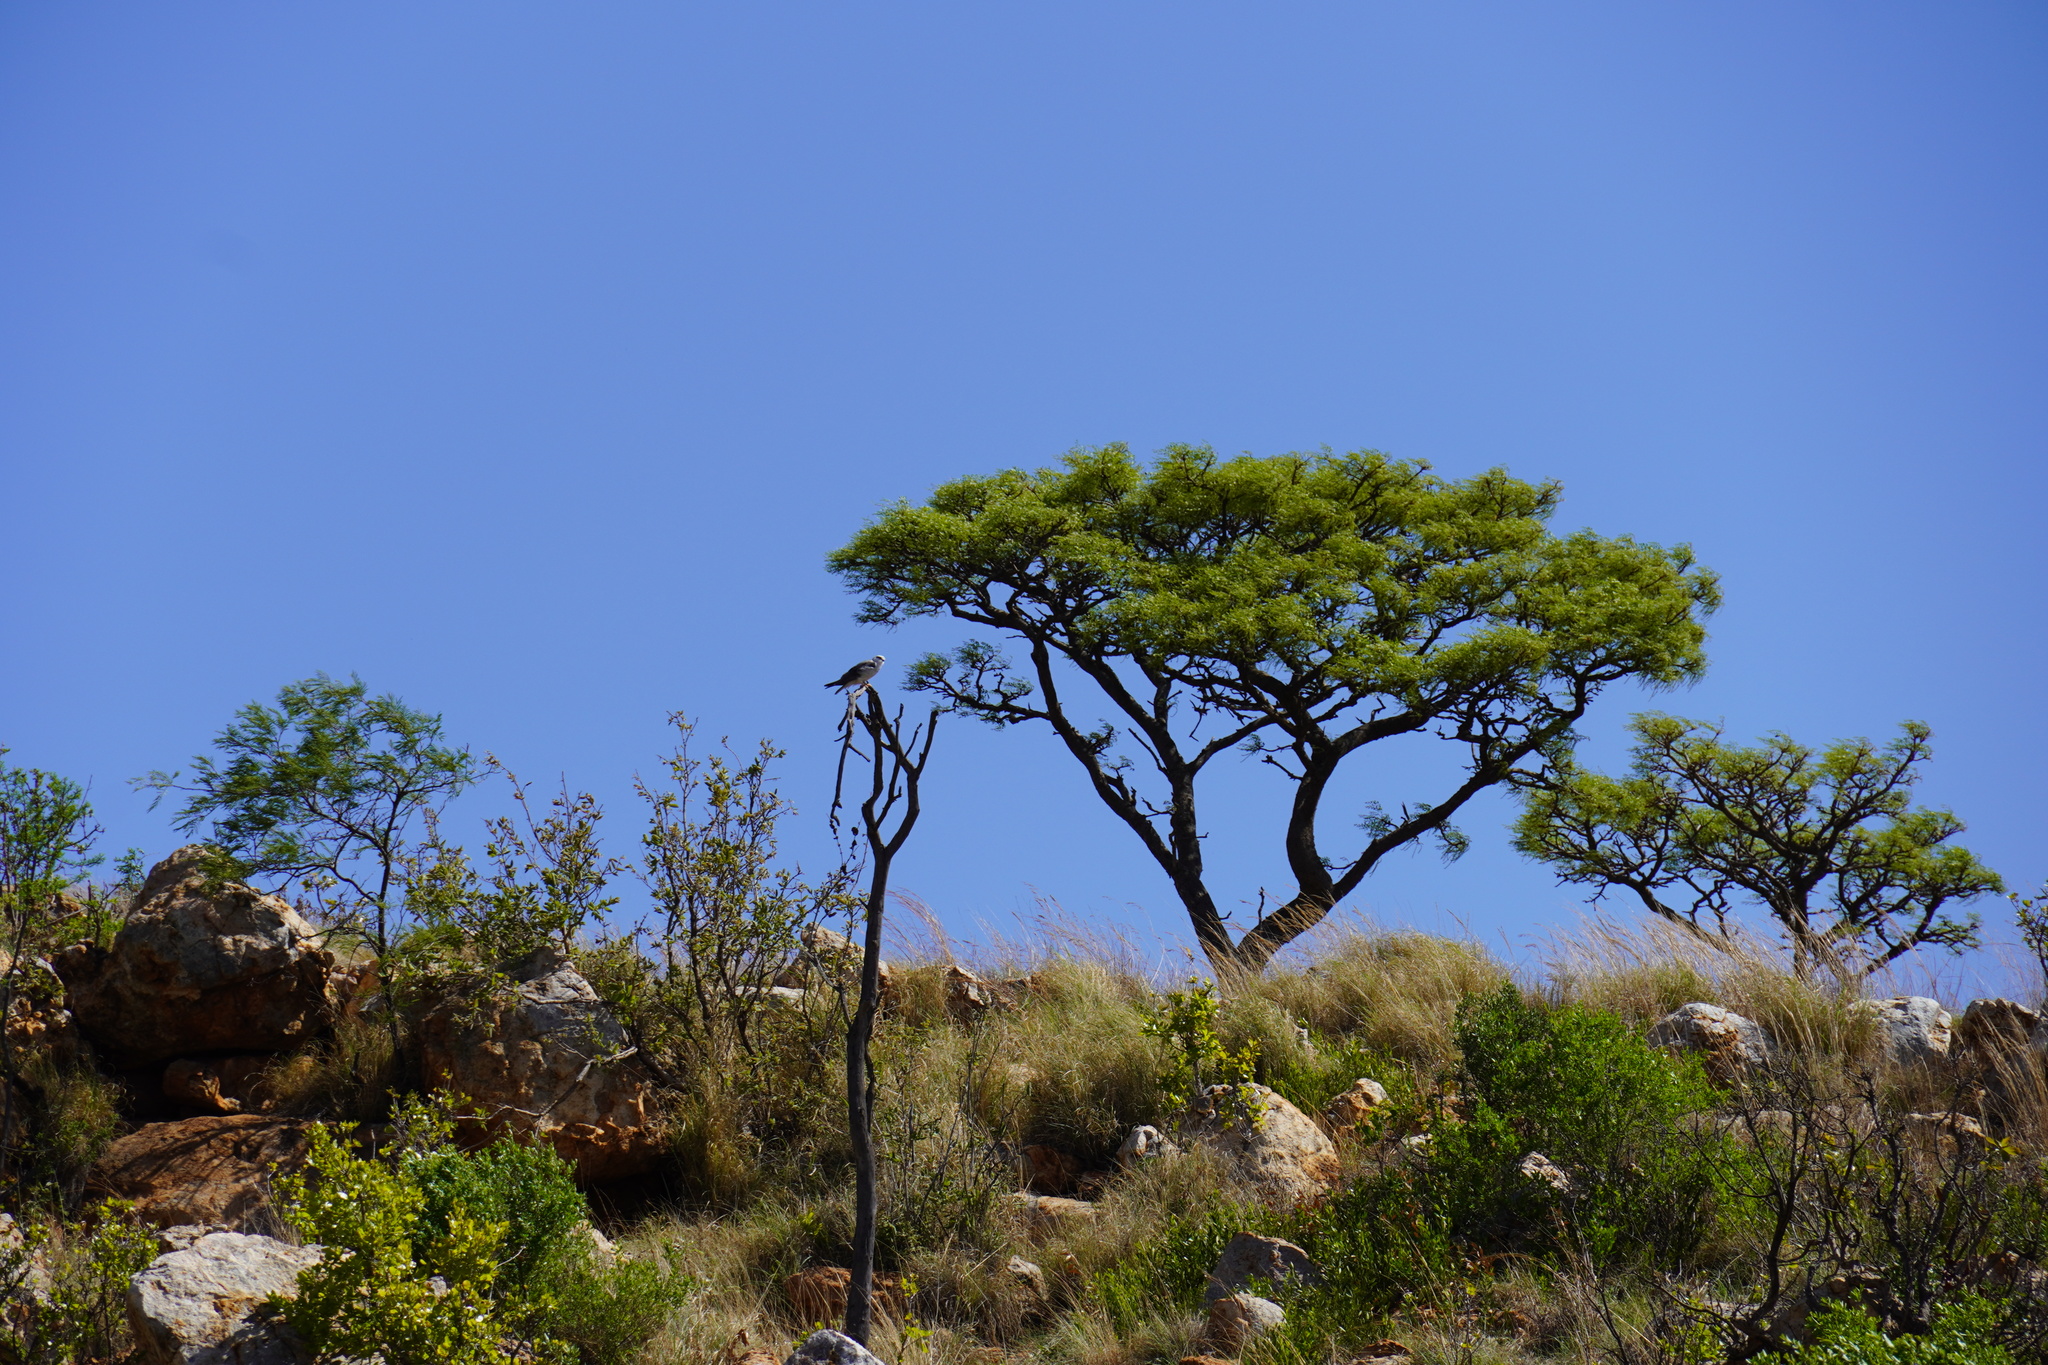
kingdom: Plantae
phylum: Tracheophyta
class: Magnoliopsida
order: Fabales
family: Fabaceae
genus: Burkea
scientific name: Burkea africana
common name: Mkalati tree
